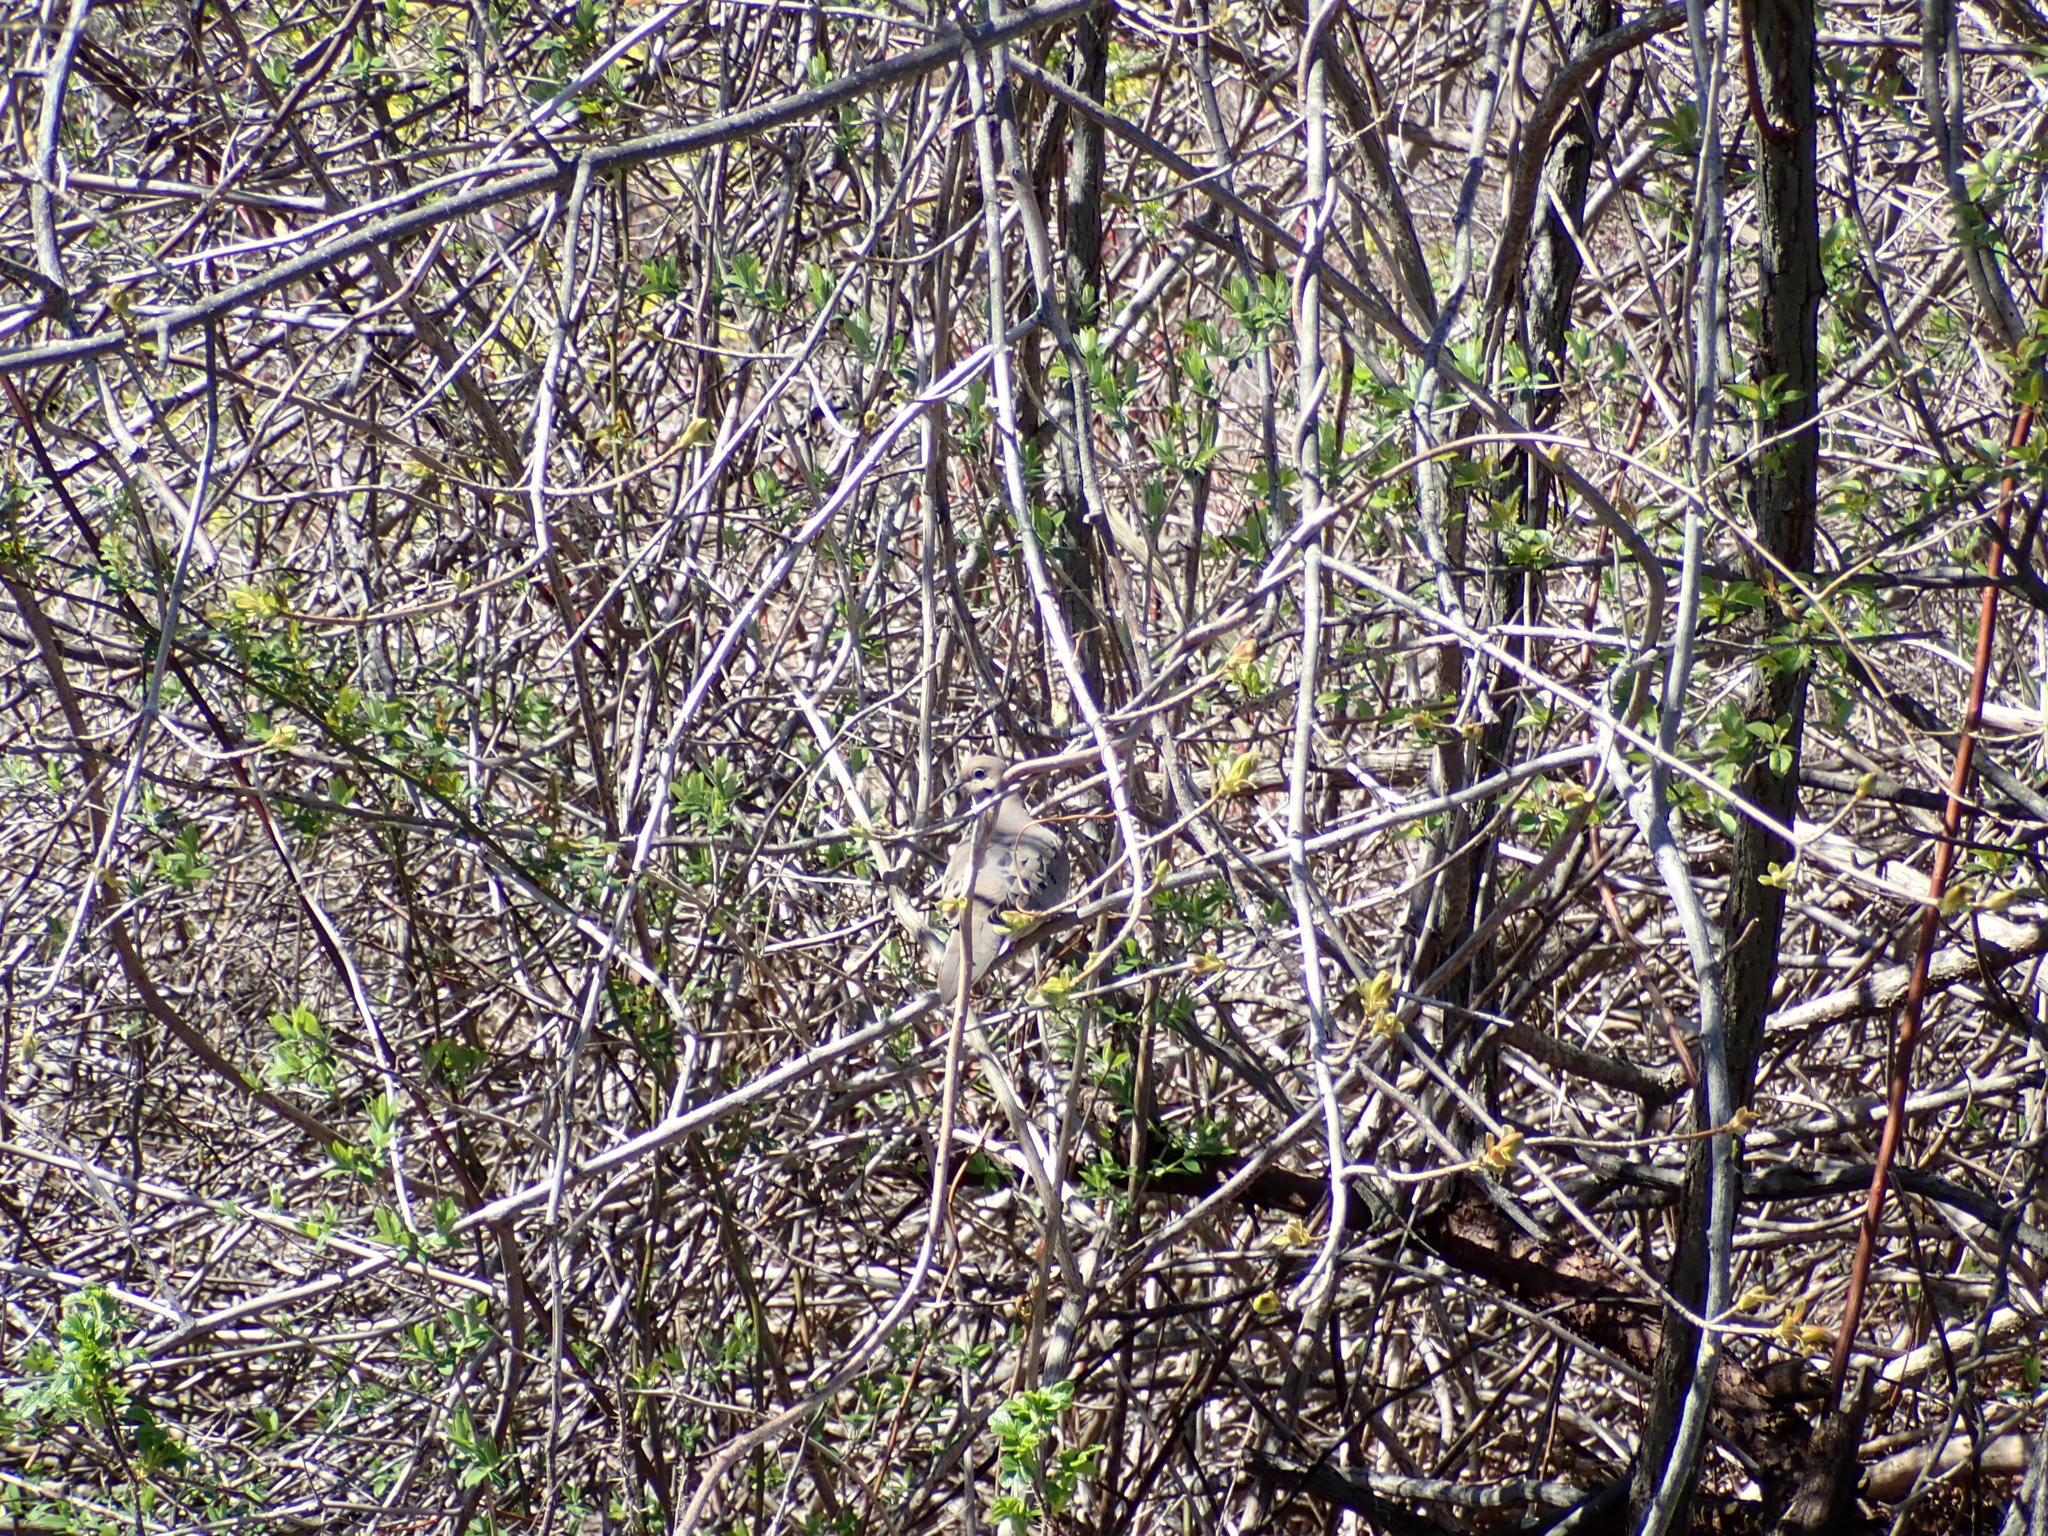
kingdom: Animalia
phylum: Chordata
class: Aves
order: Columbiformes
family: Columbidae
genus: Zenaida
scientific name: Zenaida macroura
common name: Mourning dove
